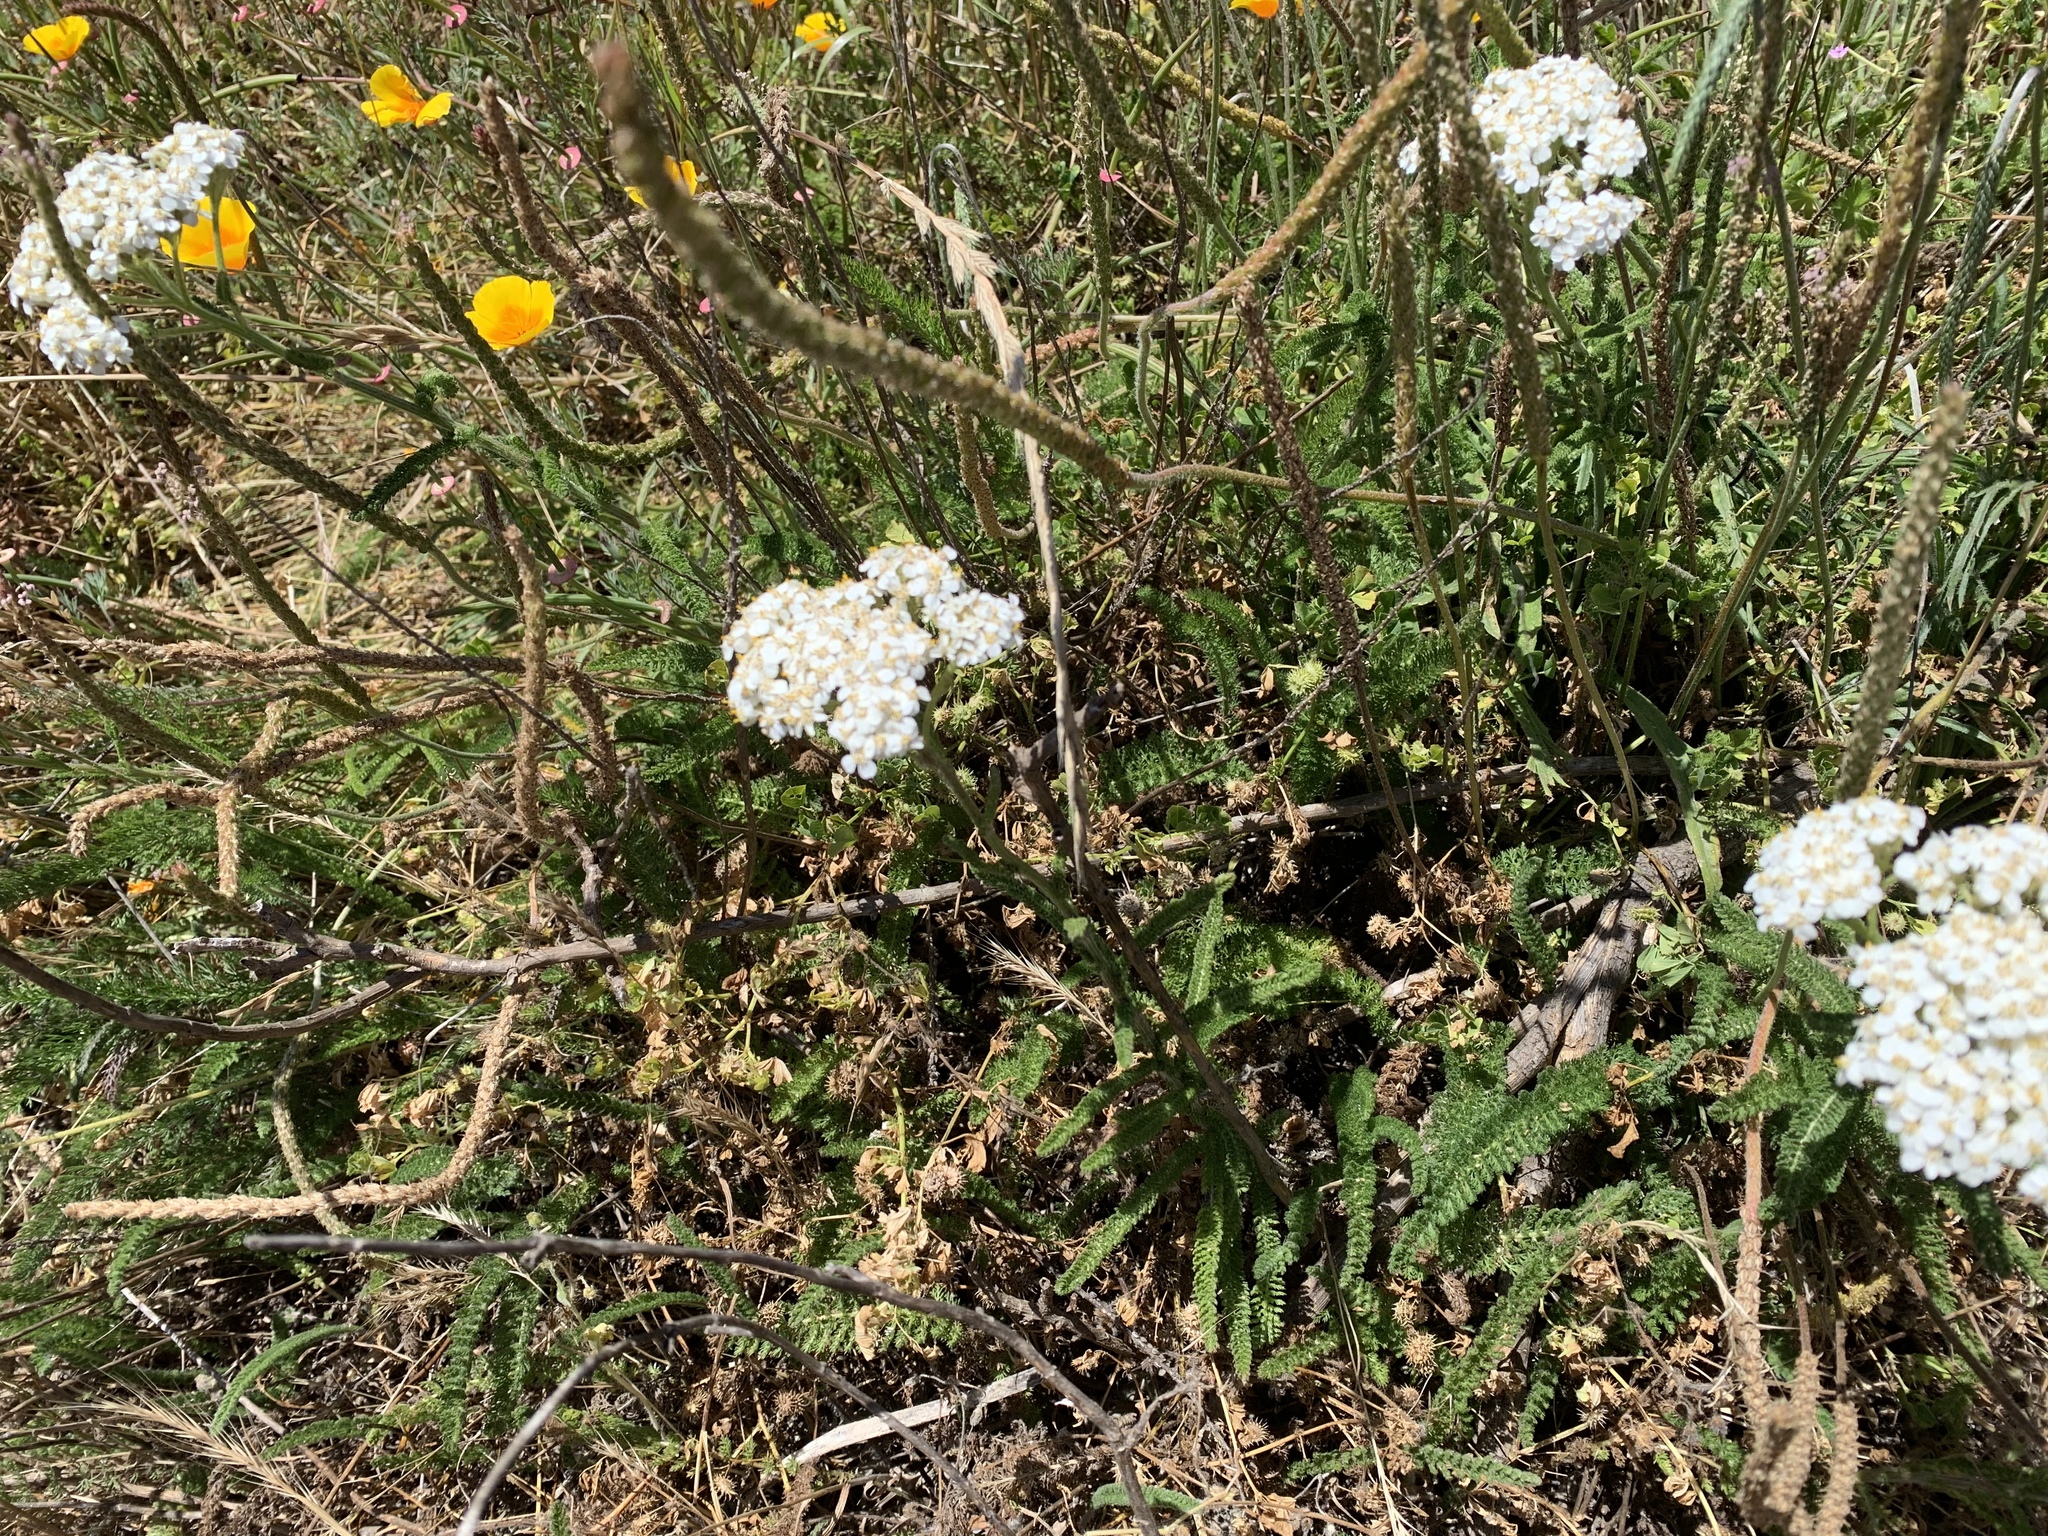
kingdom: Plantae
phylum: Tracheophyta
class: Magnoliopsida
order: Asterales
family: Asteraceae
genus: Achillea
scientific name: Achillea millefolium
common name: Yarrow
